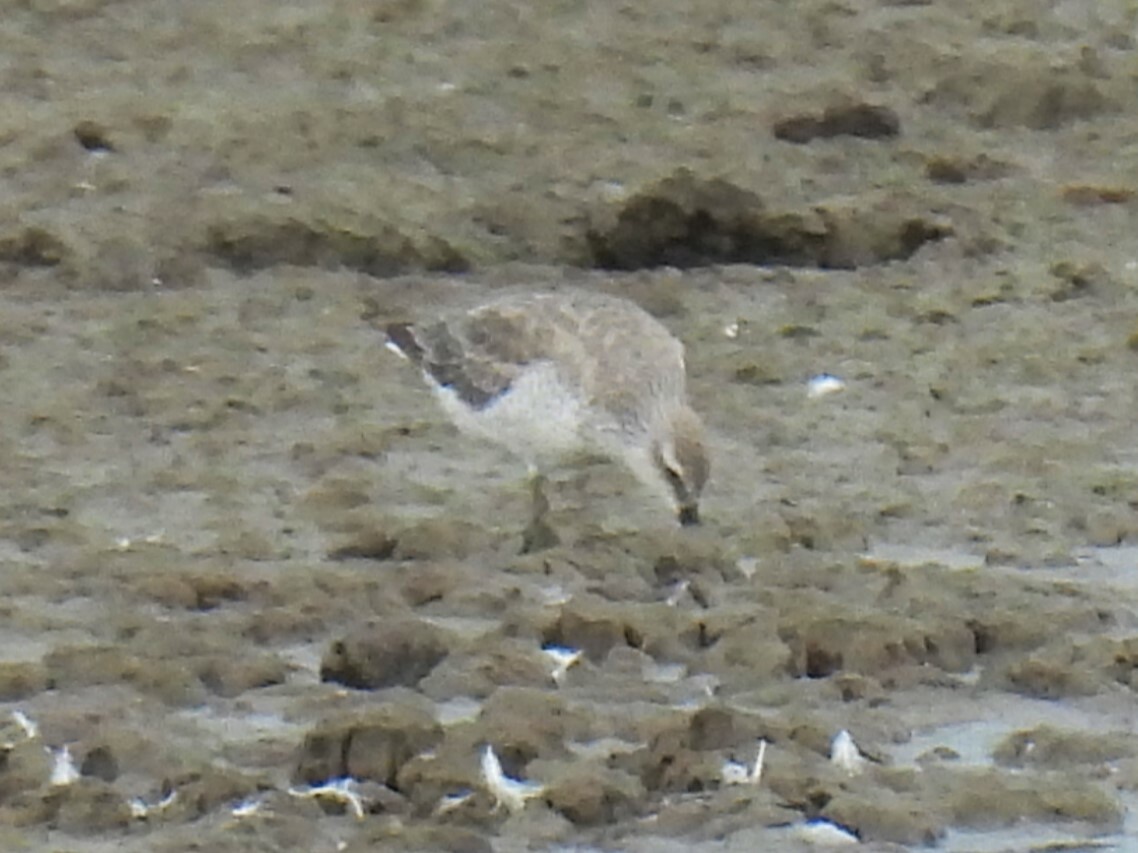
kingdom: Animalia
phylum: Chordata
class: Aves
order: Charadriiformes
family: Scolopacidae
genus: Calidris
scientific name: Calidris canutus
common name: Red knot
